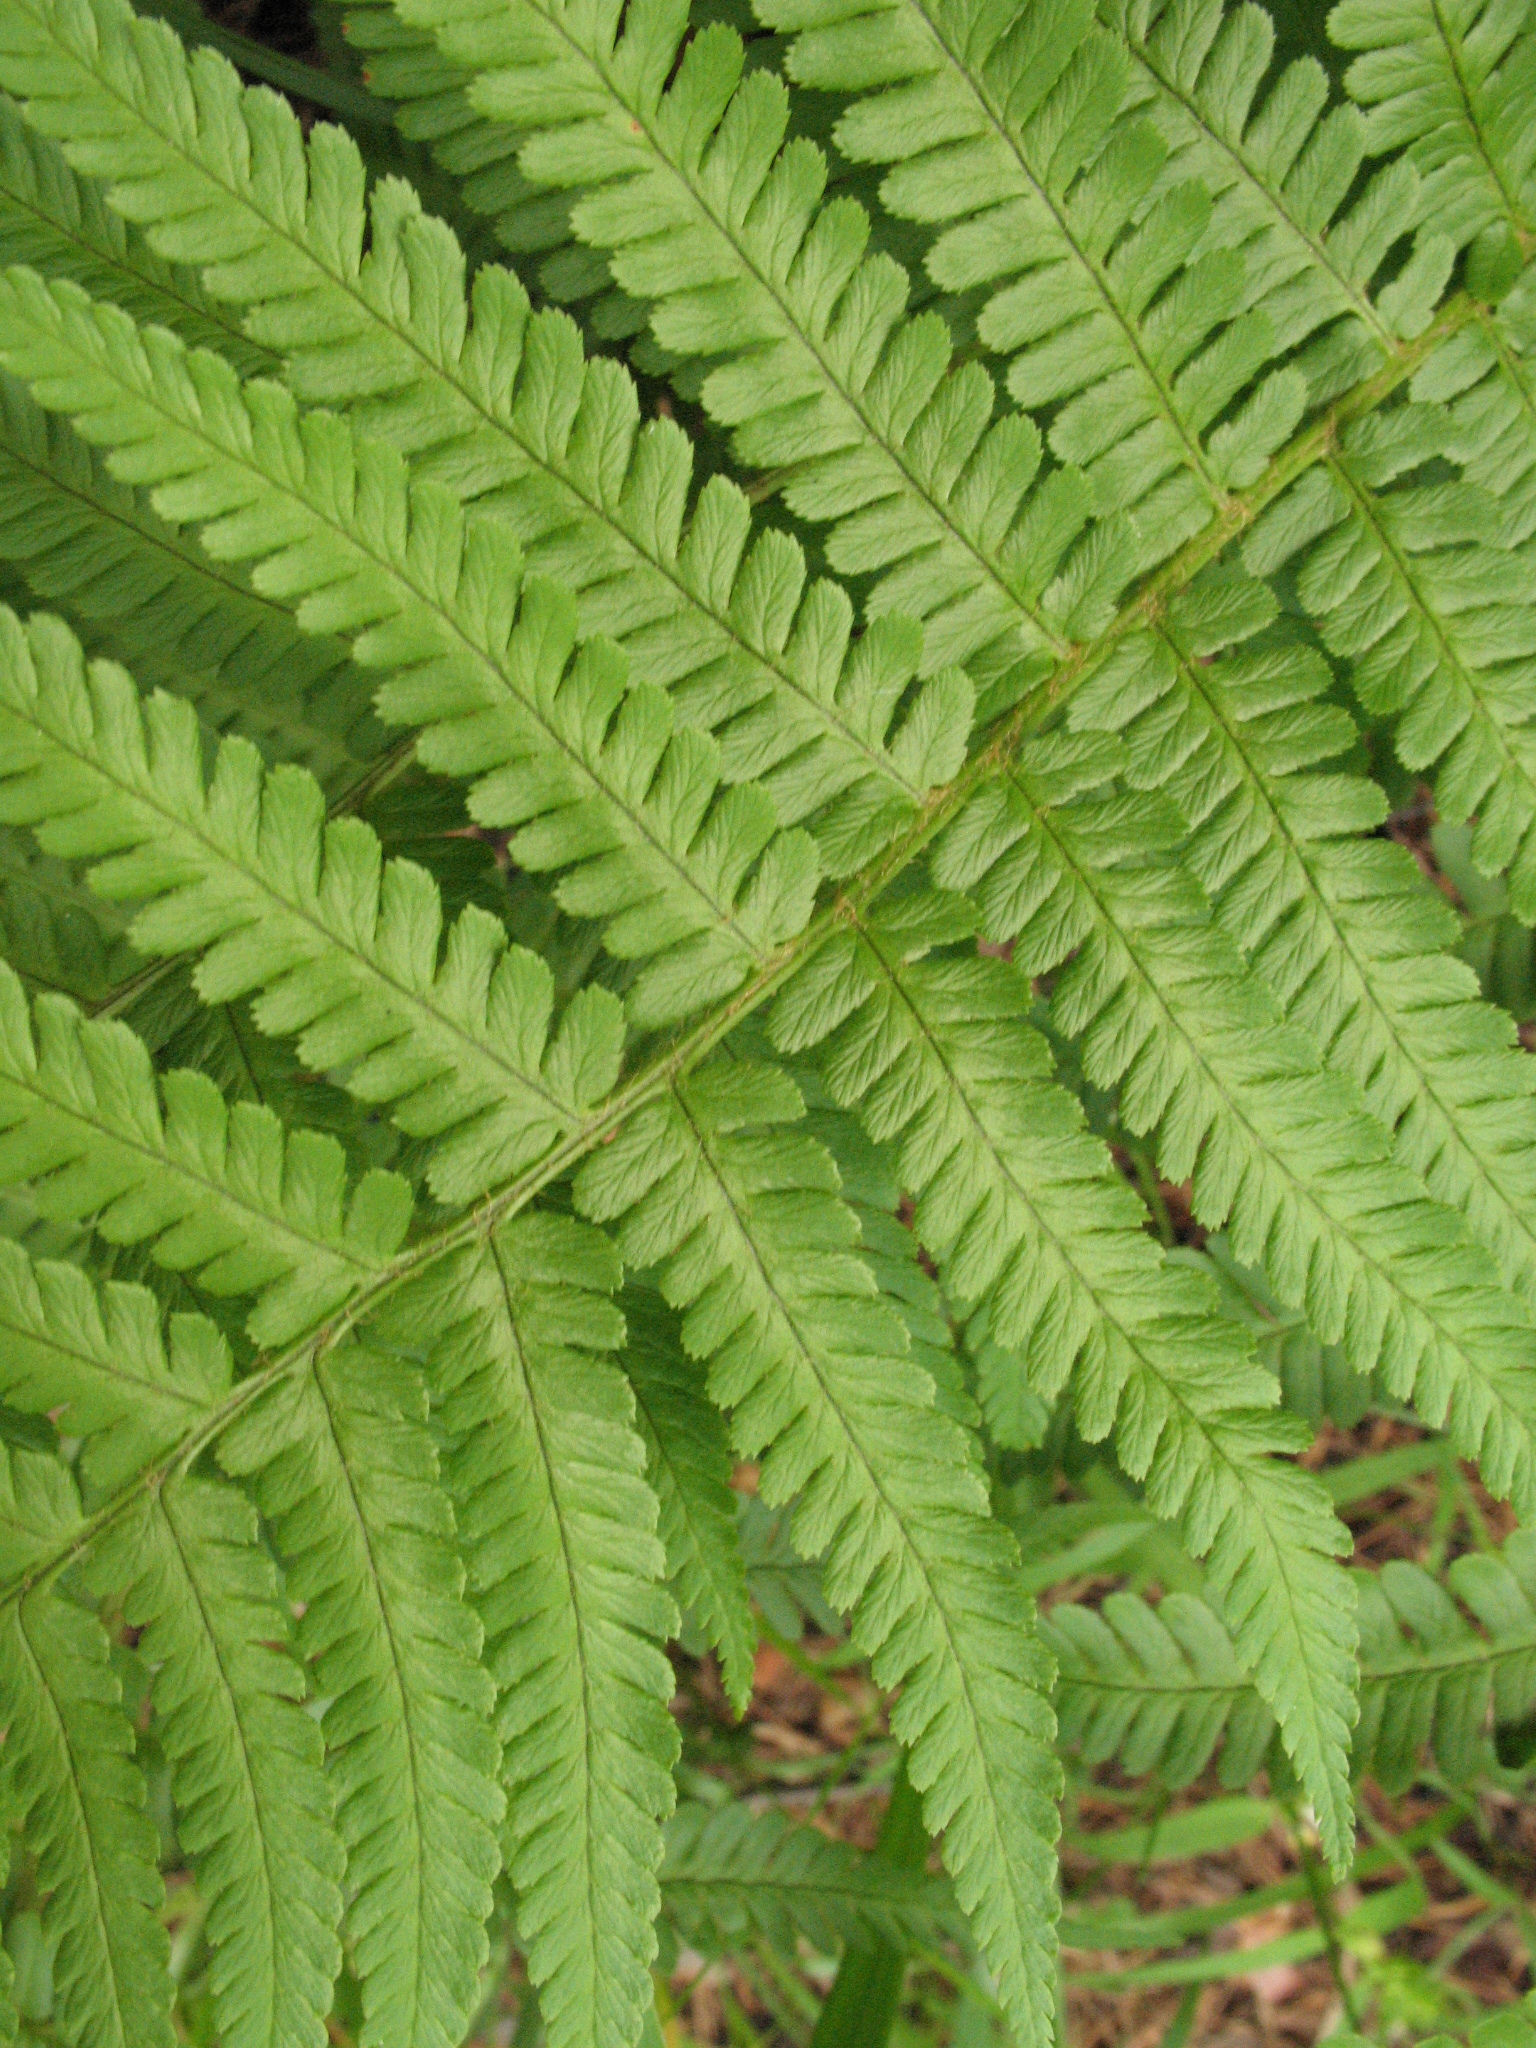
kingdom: Plantae
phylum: Tracheophyta
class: Polypodiopsida
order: Polypodiales
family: Dryopteridaceae
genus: Dryopteris
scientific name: Dryopteris filix-mas
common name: Male fern
